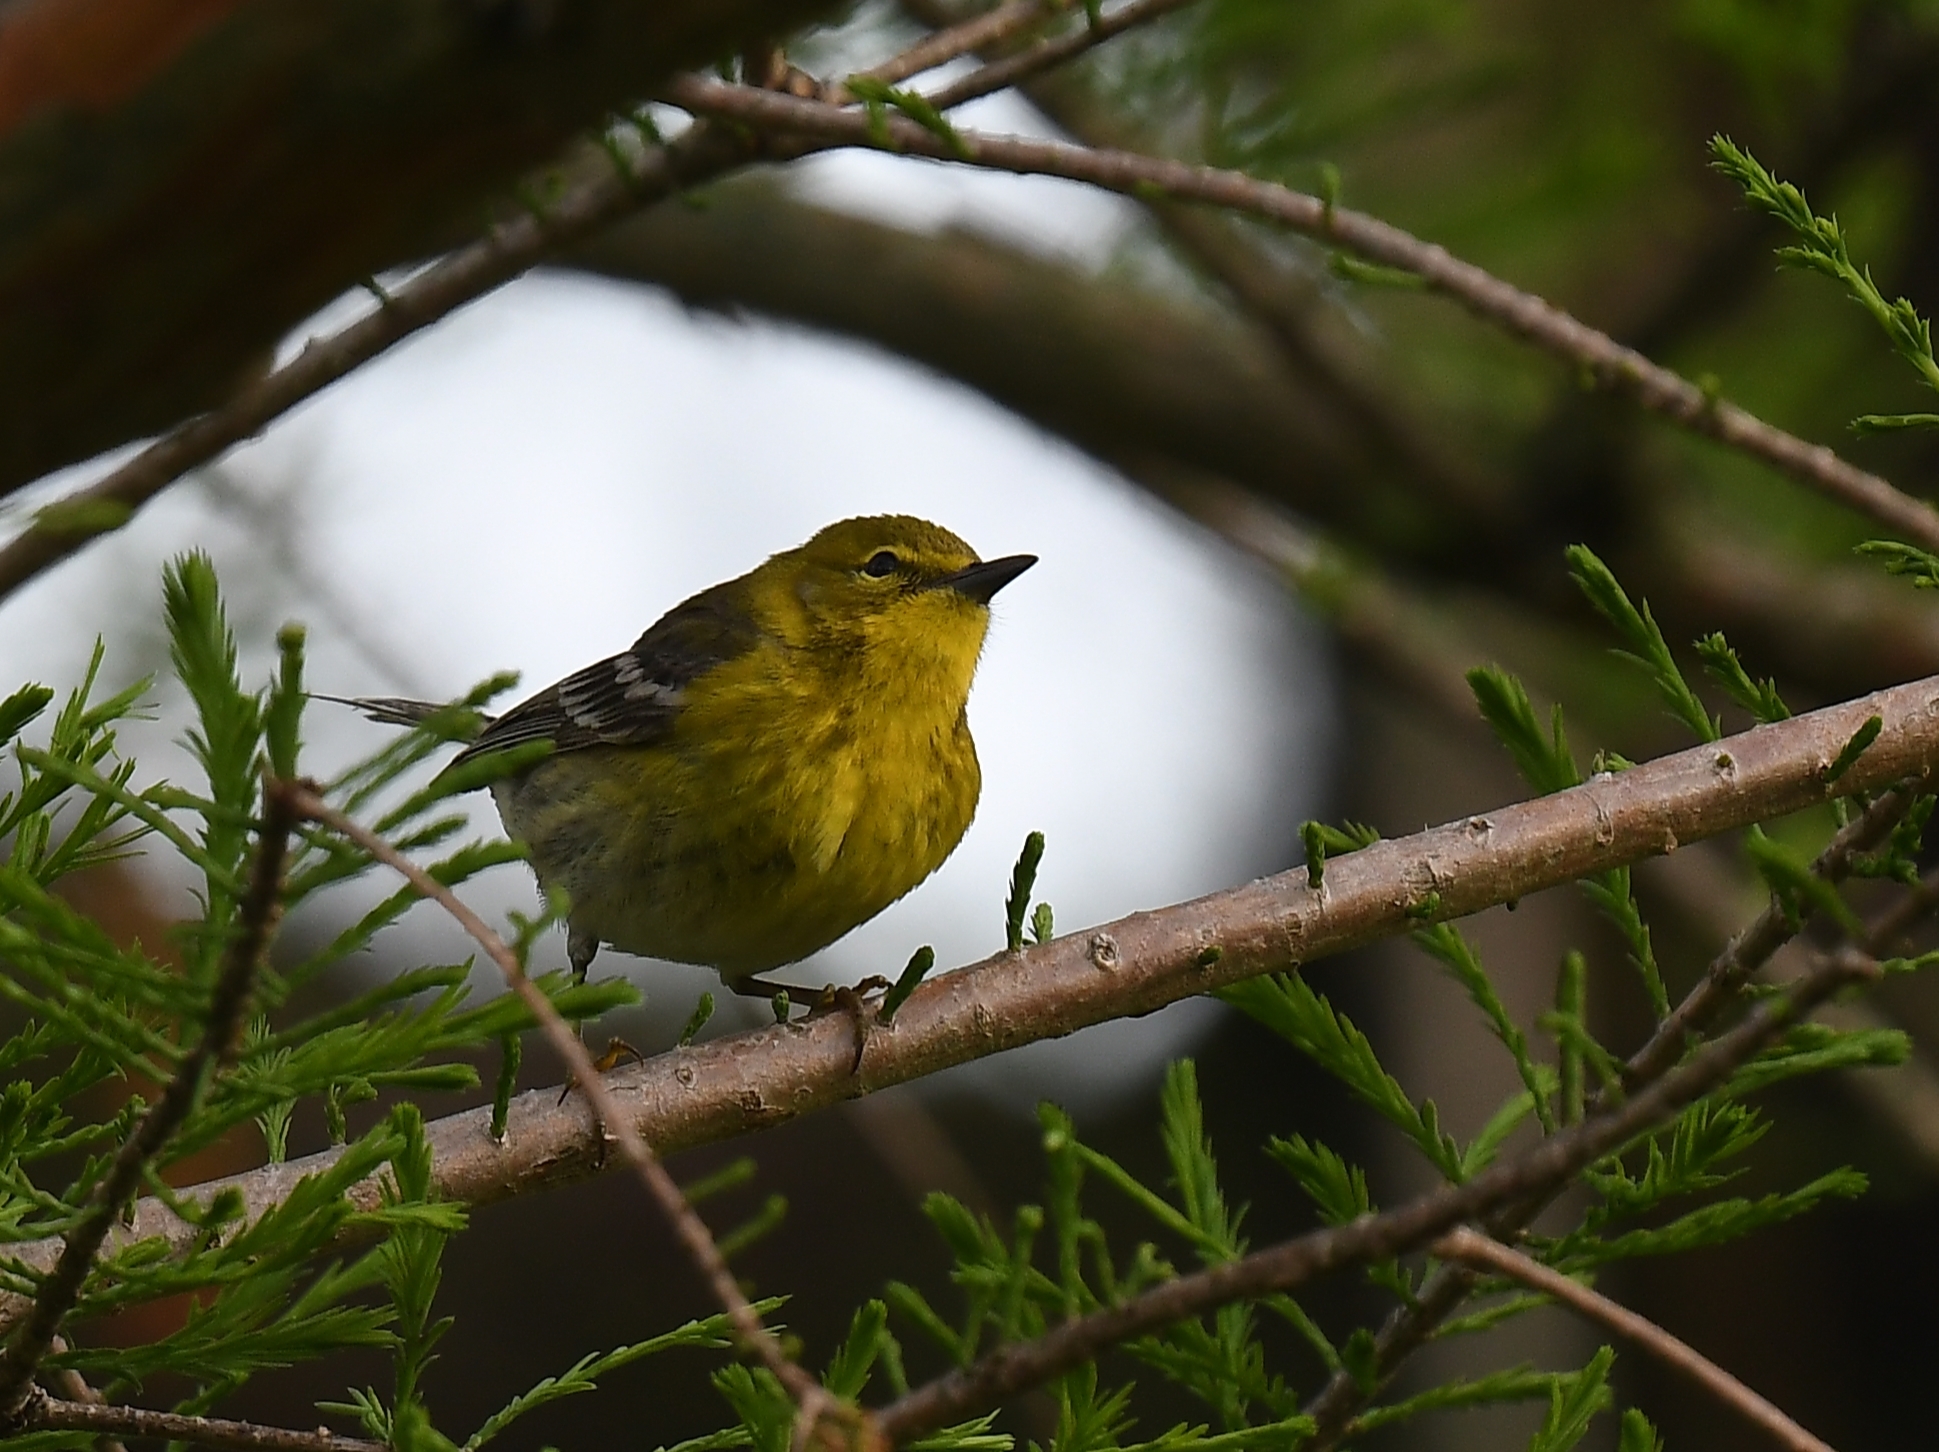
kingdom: Animalia
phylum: Chordata
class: Aves
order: Passeriformes
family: Parulidae
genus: Setophaga
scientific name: Setophaga pinus
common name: Pine warbler
